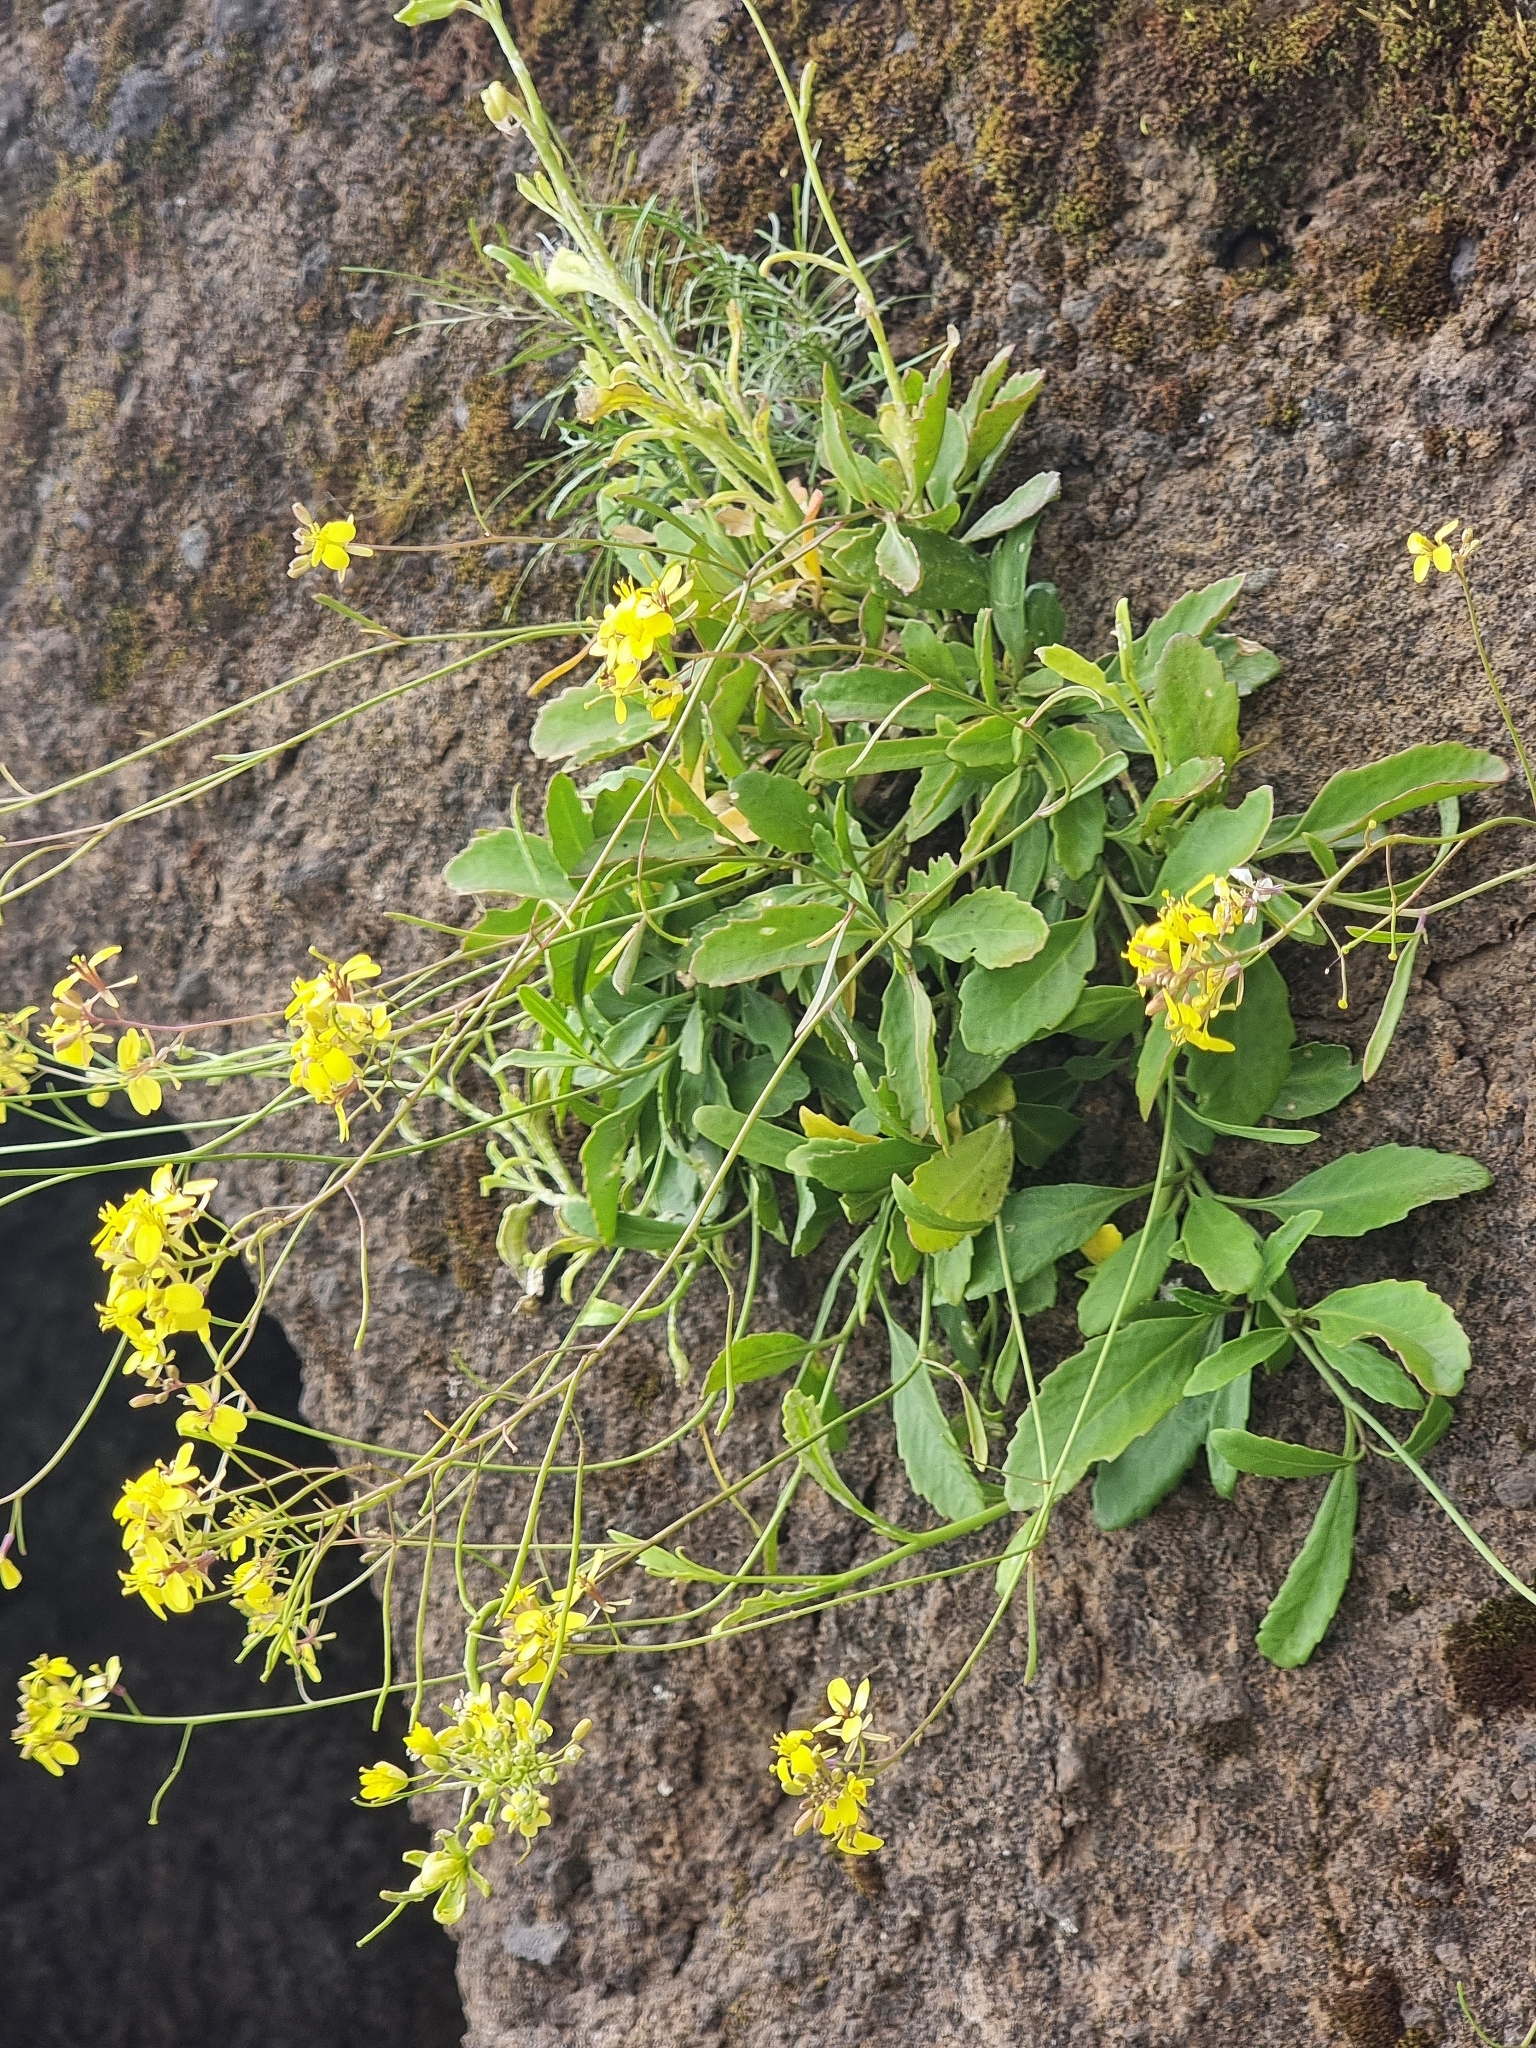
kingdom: Plantae
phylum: Tracheophyta
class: Magnoliopsida
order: Brassicales
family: Brassicaceae
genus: Sinapidendron
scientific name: Sinapidendron frutescens
